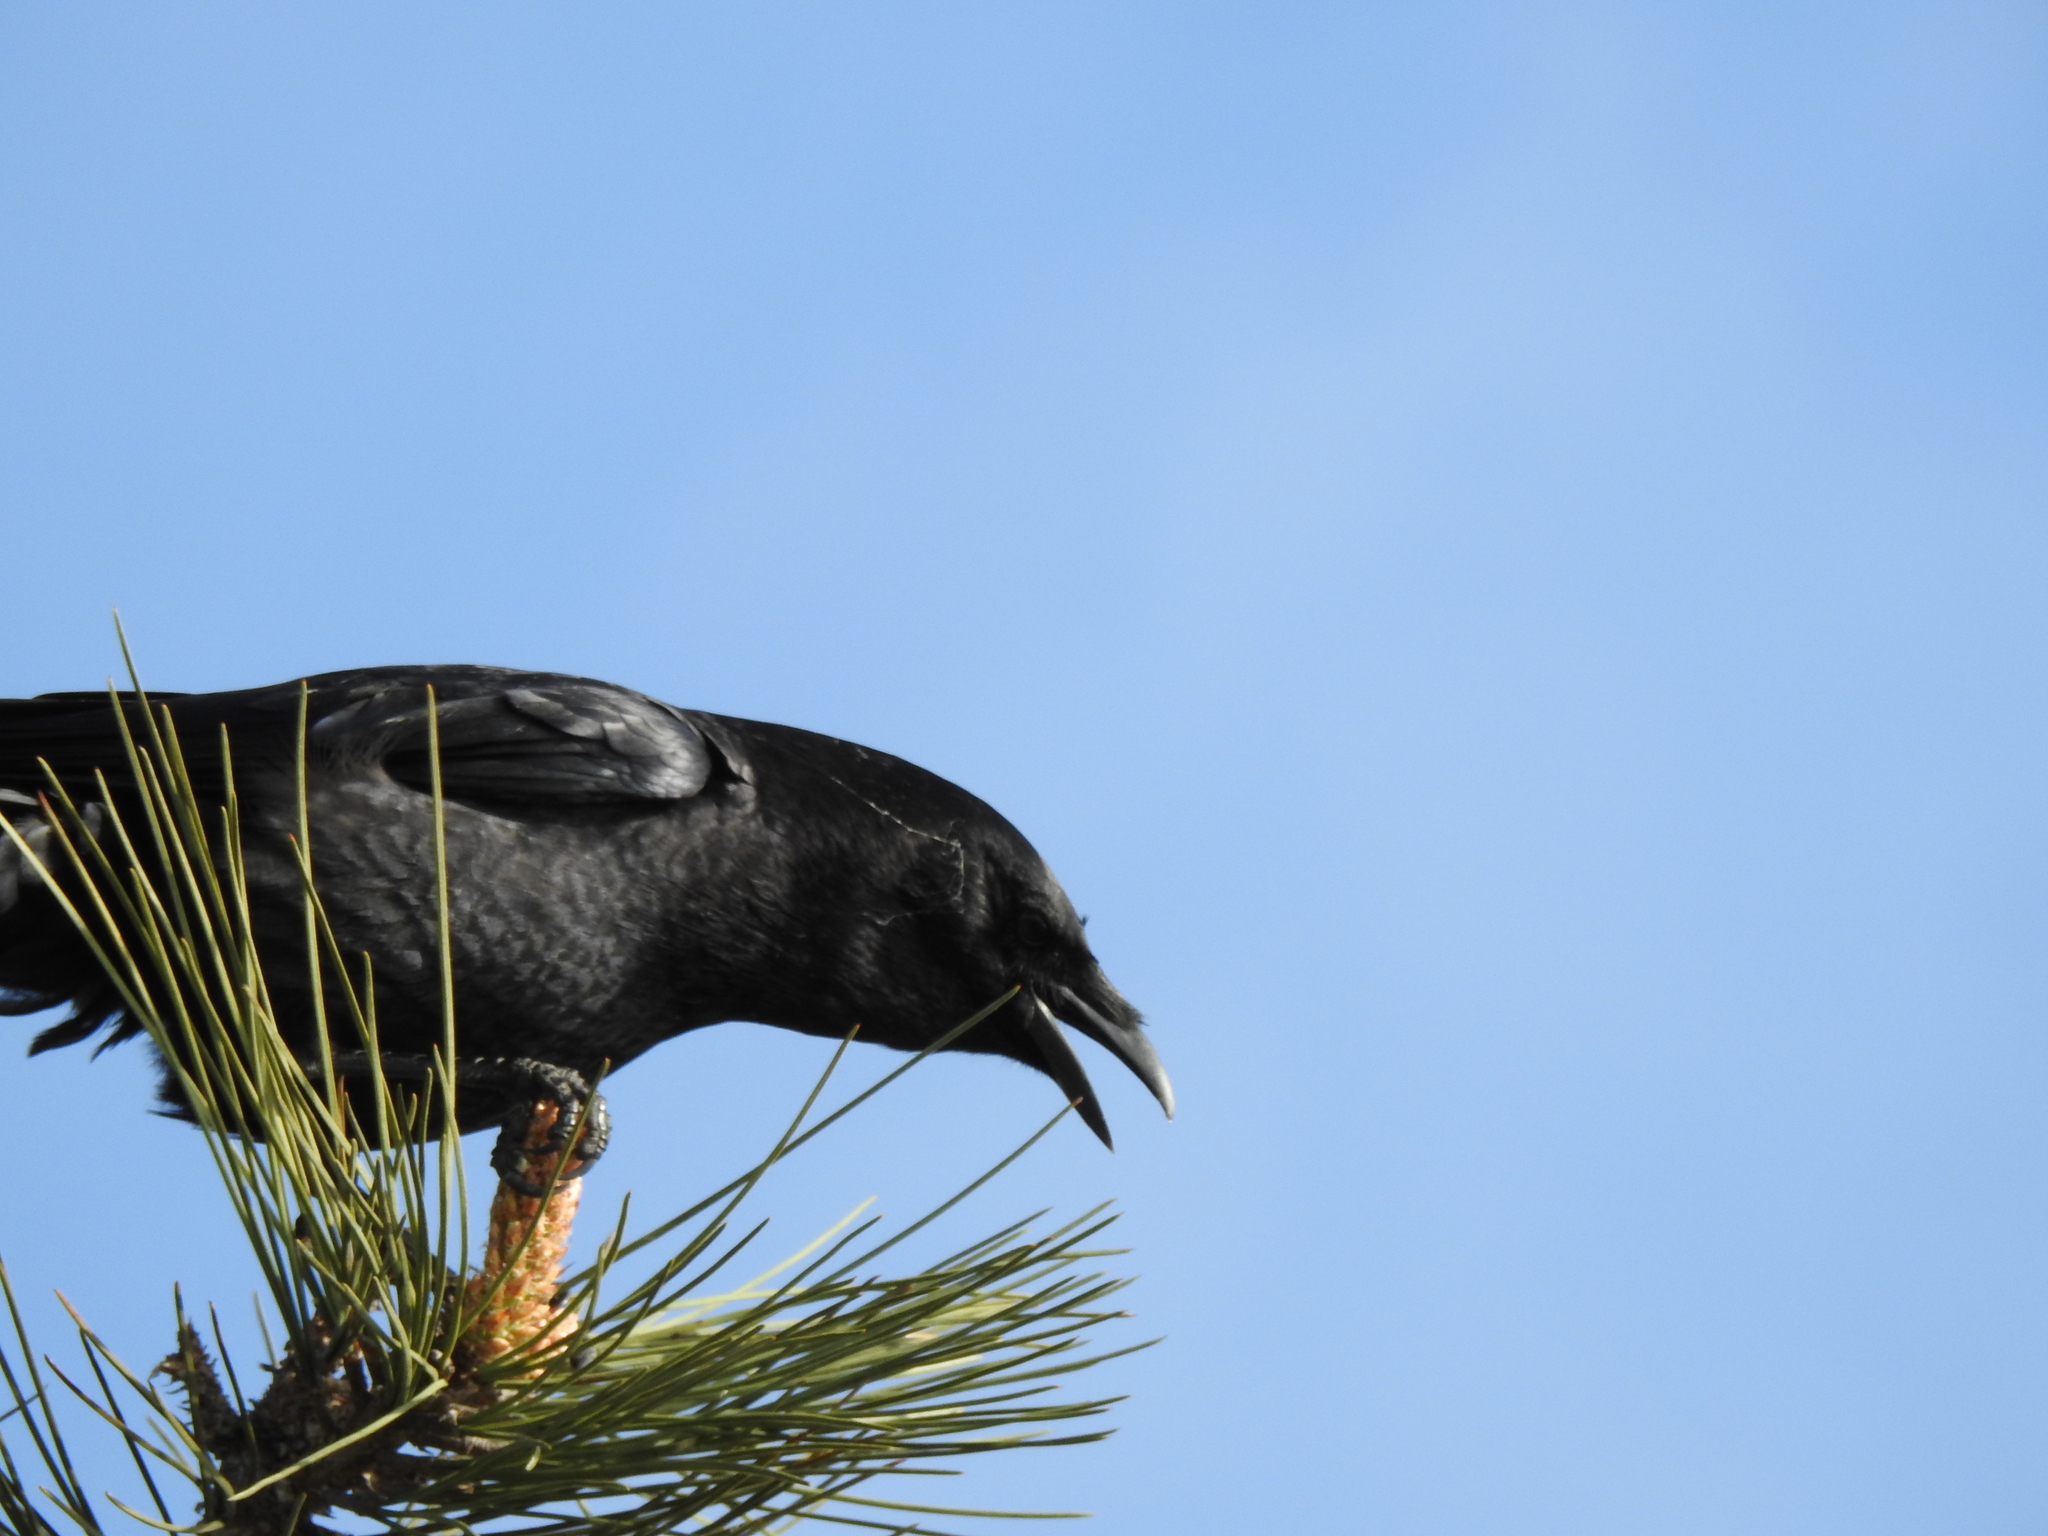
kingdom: Animalia
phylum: Chordata
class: Aves
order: Passeriformes
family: Corvidae
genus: Corvus
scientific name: Corvus brachyrhynchos
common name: American crow
